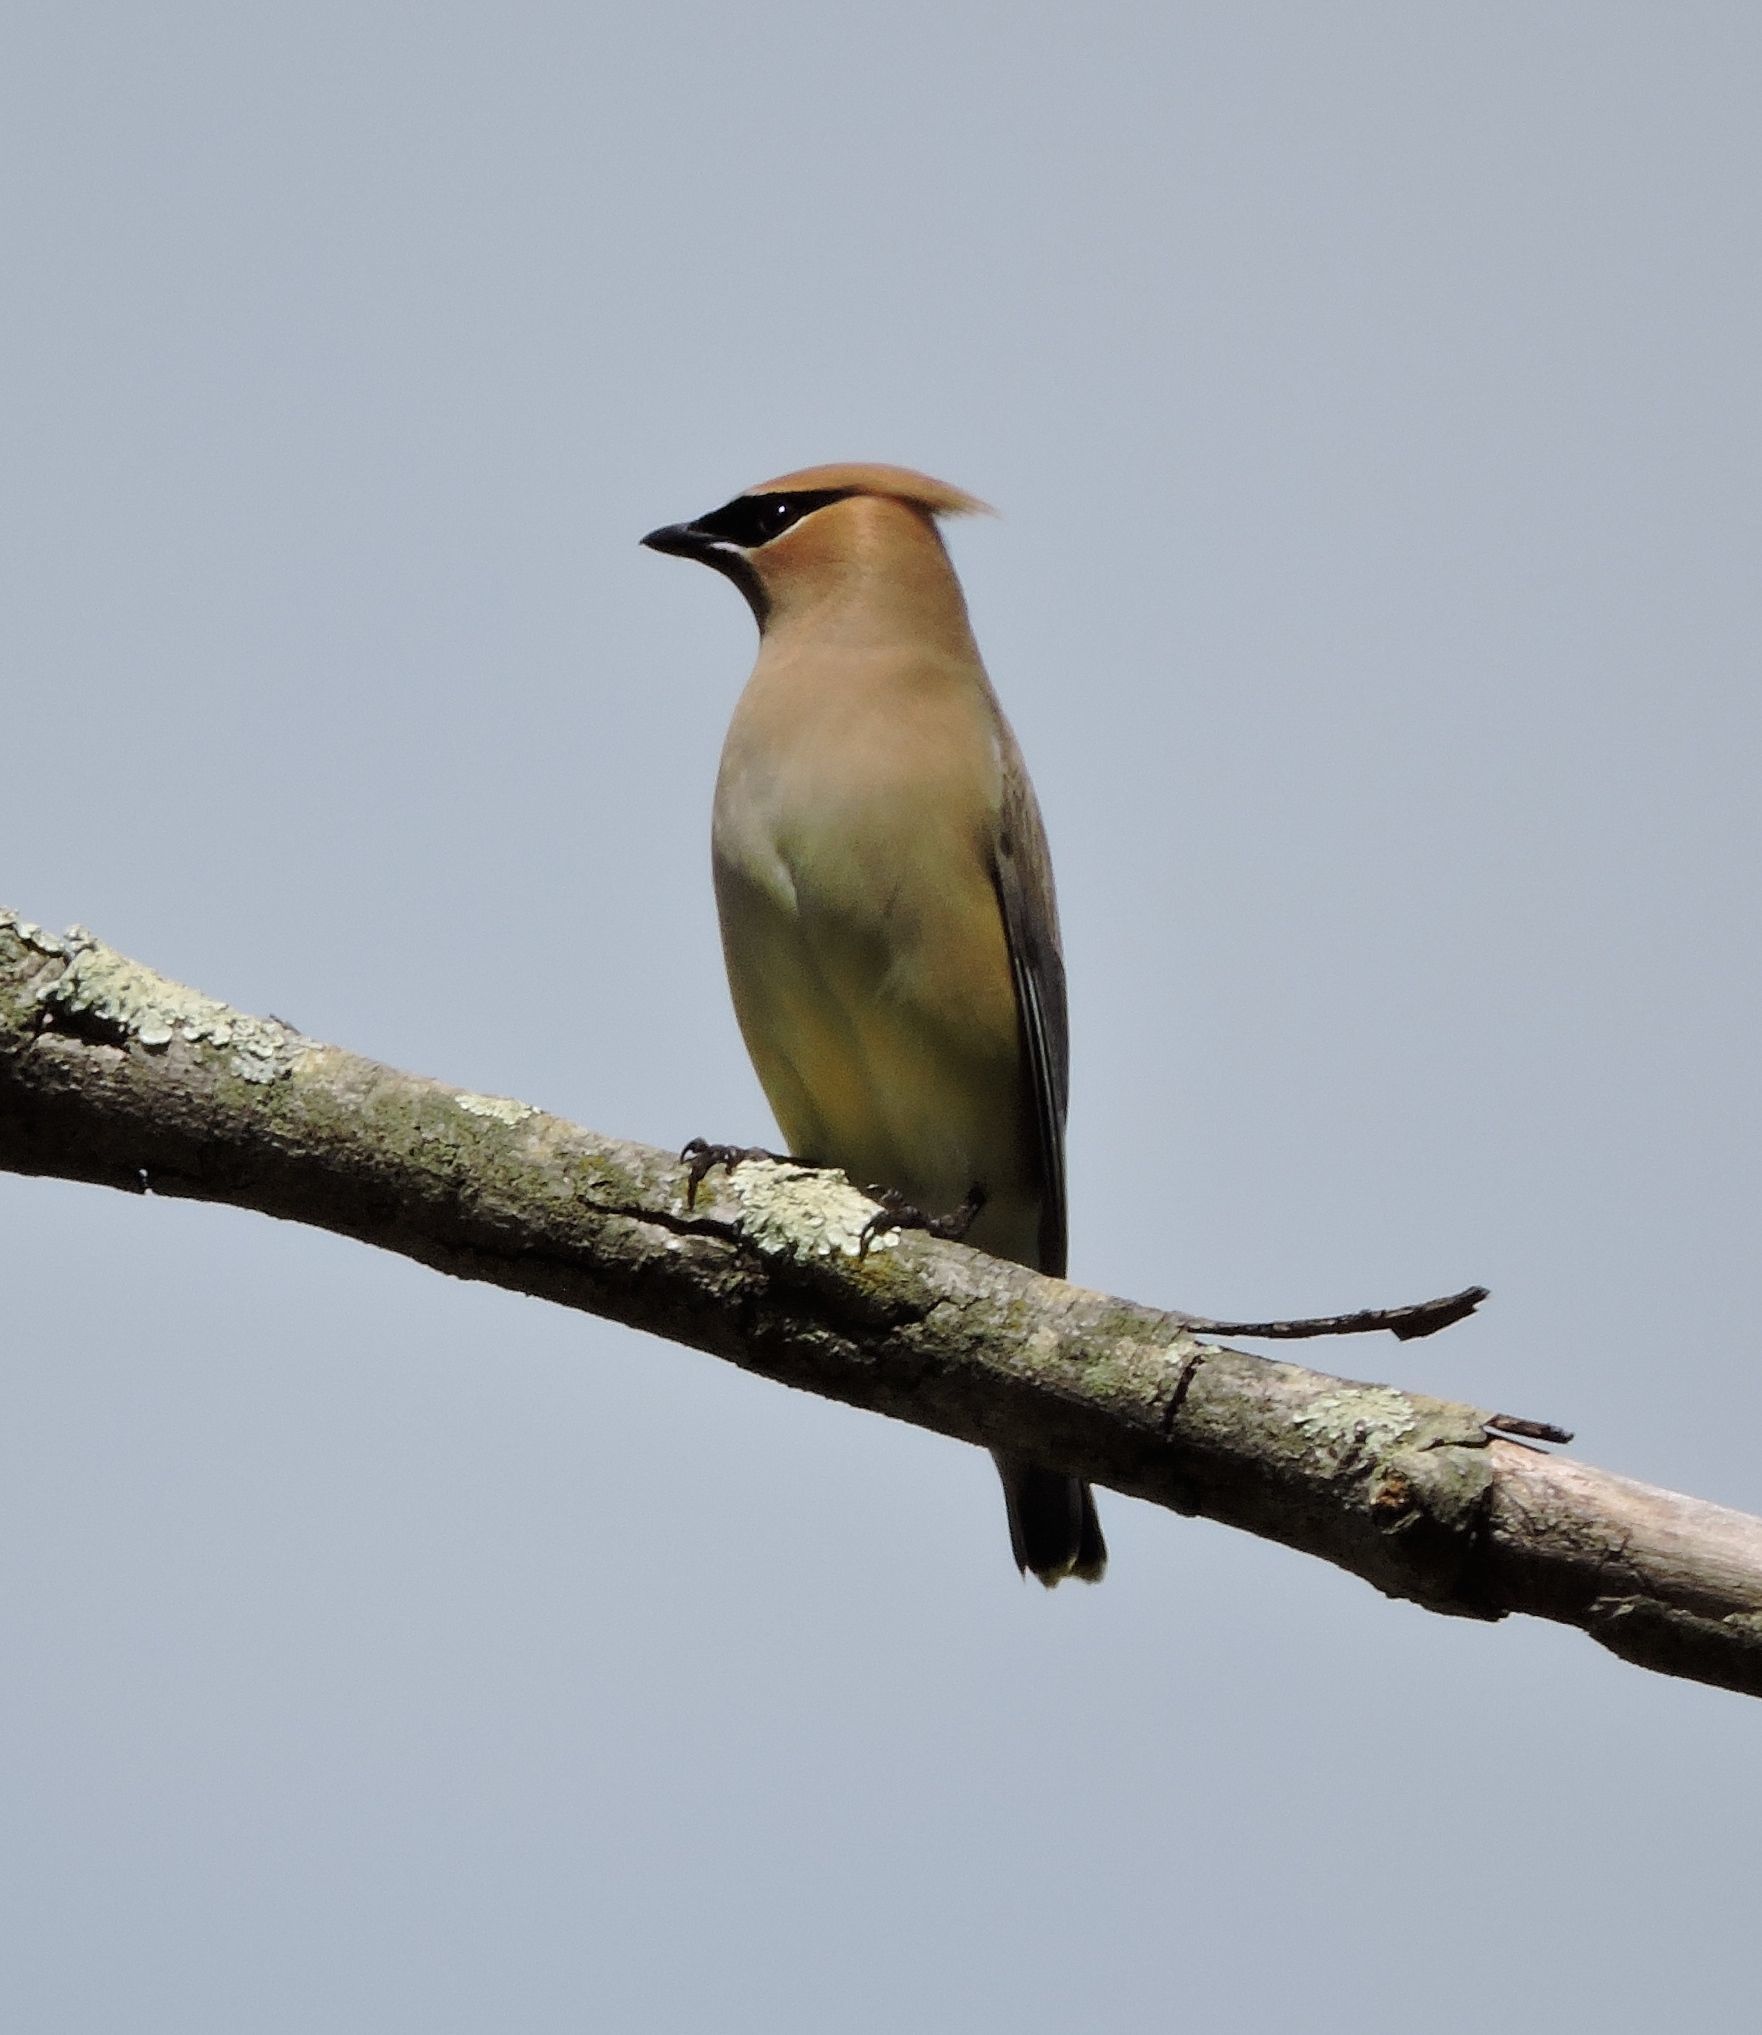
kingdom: Animalia
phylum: Chordata
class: Aves
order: Passeriformes
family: Bombycillidae
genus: Bombycilla
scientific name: Bombycilla cedrorum
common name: Cedar waxwing
